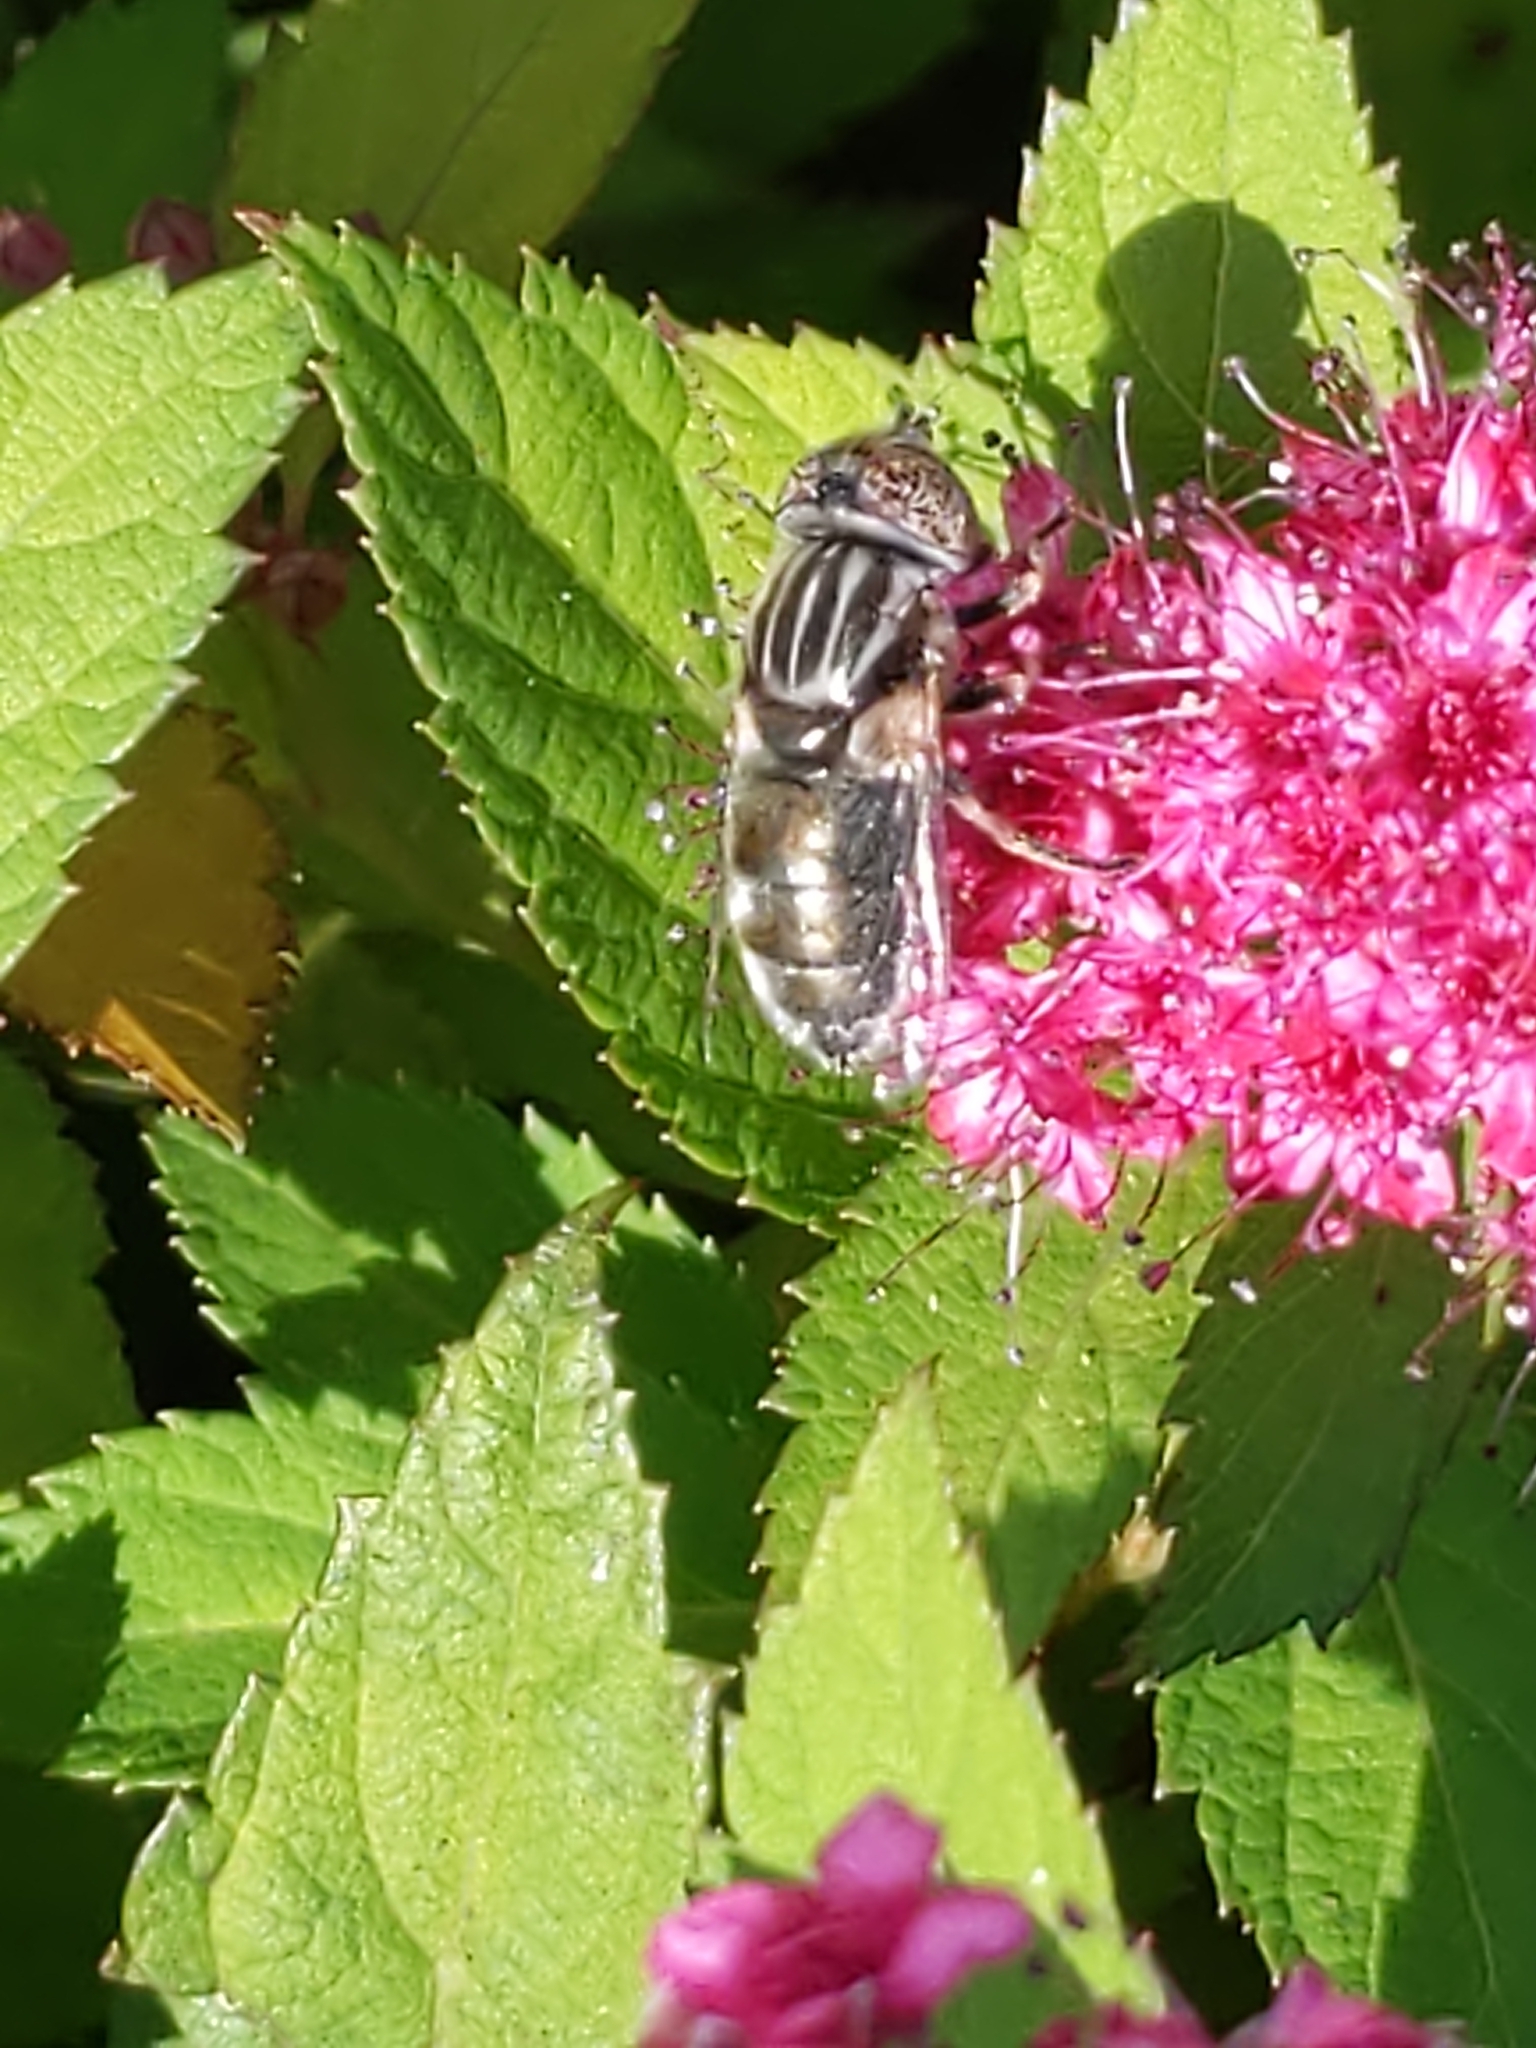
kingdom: Animalia
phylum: Arthropoda
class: Insecta
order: Diptera
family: Syrphidae
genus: Eristalinus
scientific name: Eristalinus aeneus
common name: Syrphid fly
